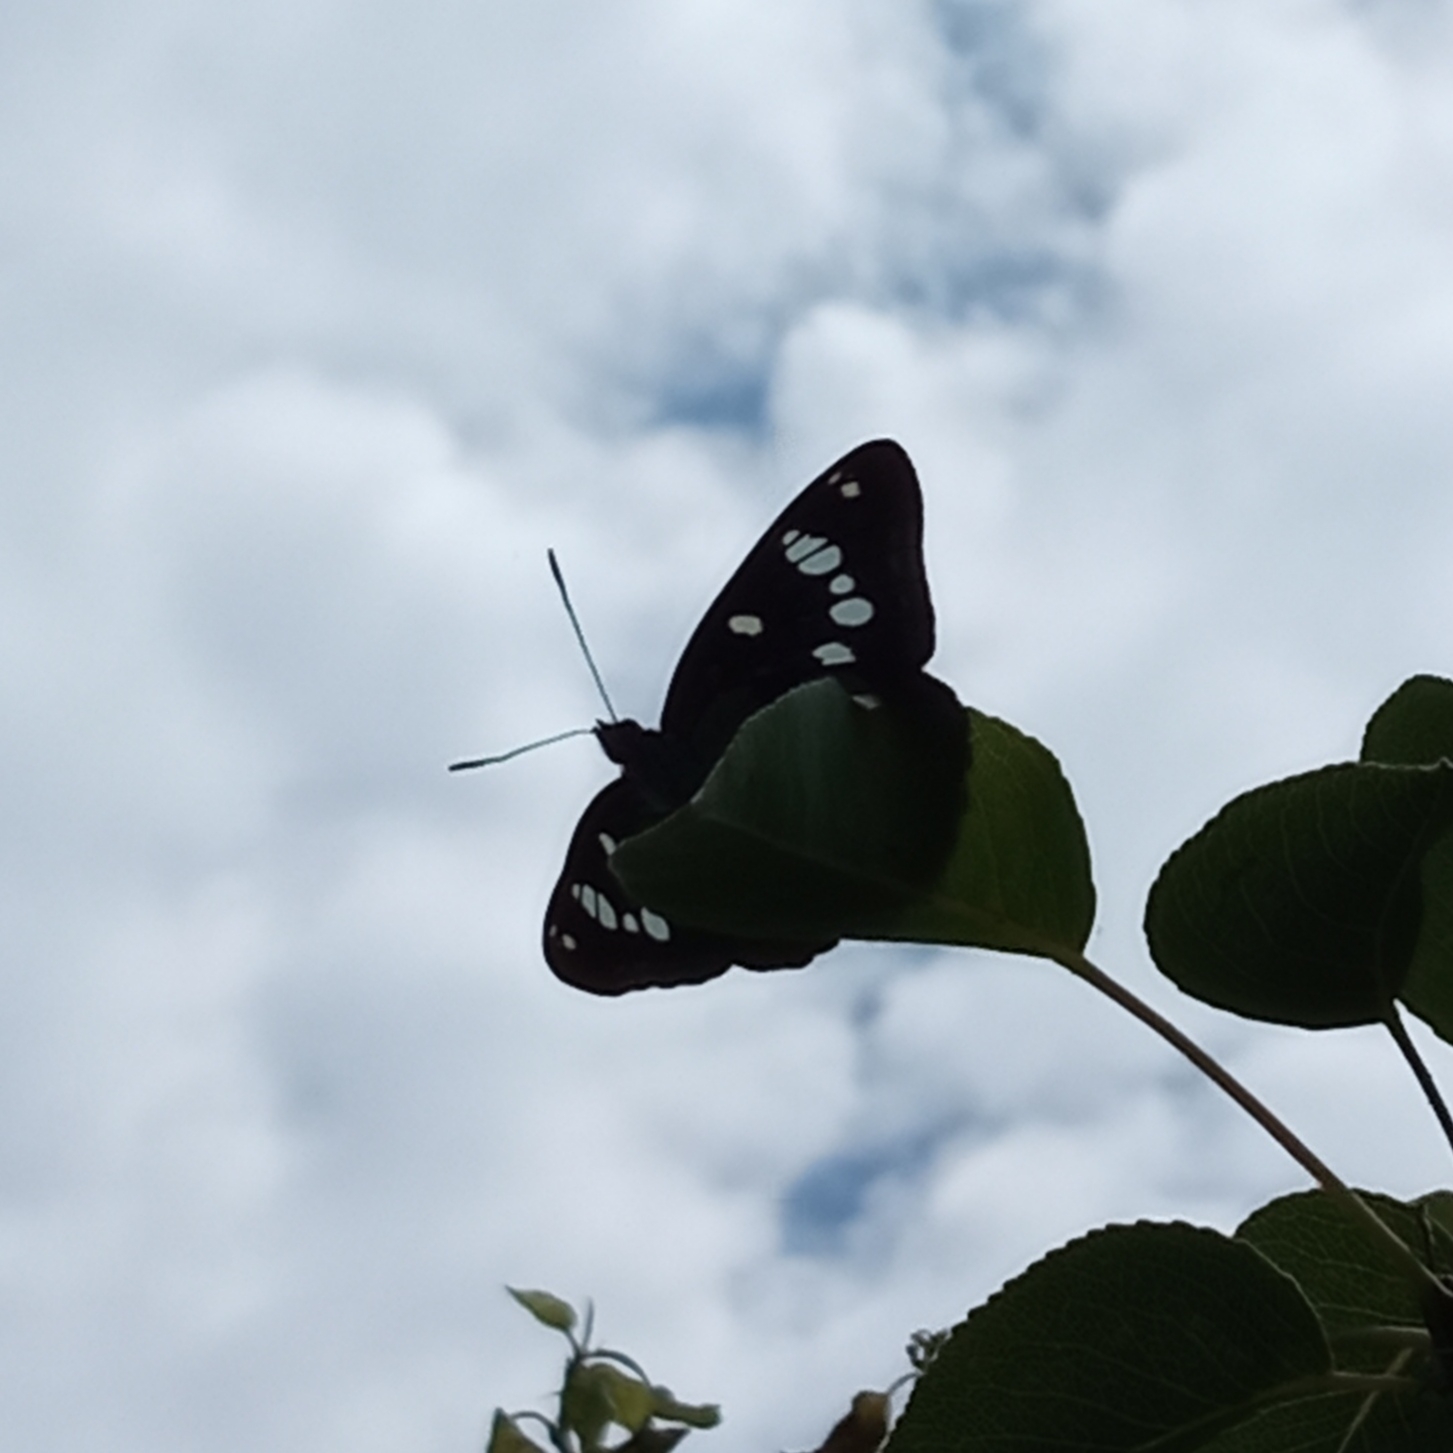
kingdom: Animalia
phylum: Arthropoda
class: Insecta
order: Lepidoptera
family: Nymphalidae
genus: Limenitis
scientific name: Limenitis reducta
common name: Southern white admiral
